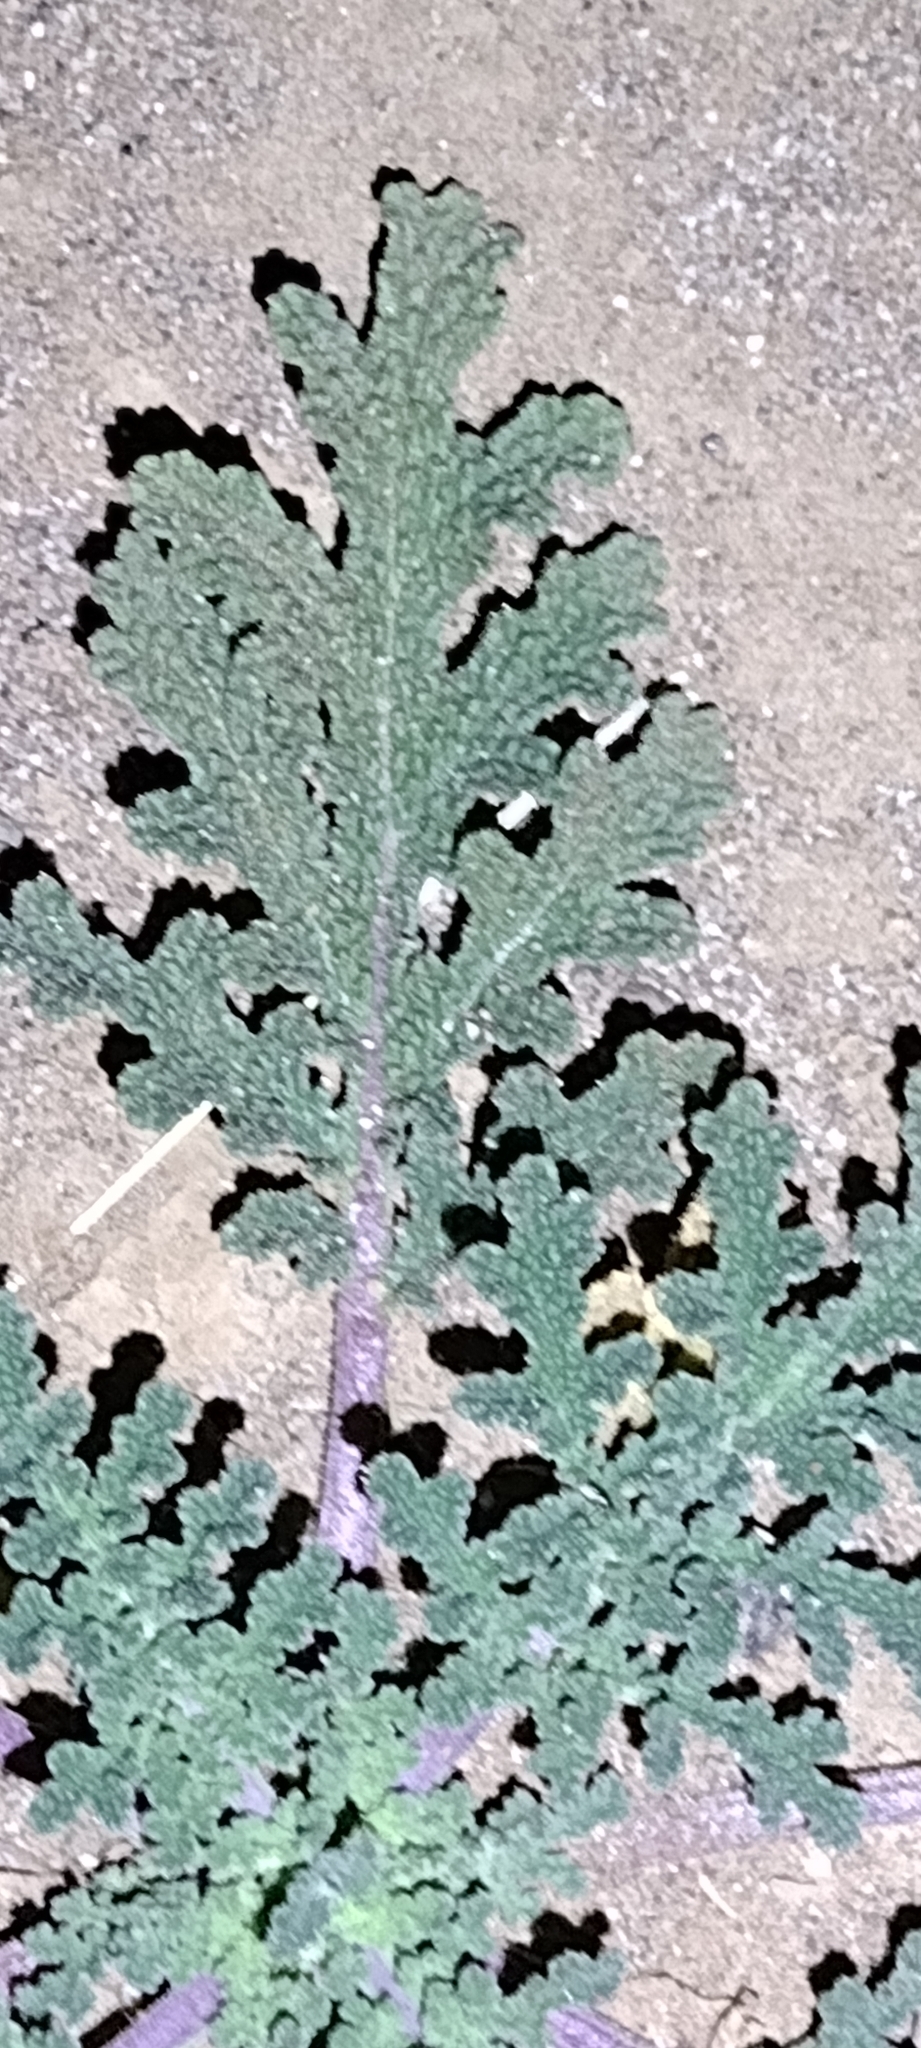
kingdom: Plantae
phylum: Tracheophyta
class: Magnoliopsida
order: Lamiales
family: Lamiaceae
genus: Salvia
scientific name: Salvia columbariae
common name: Chia
